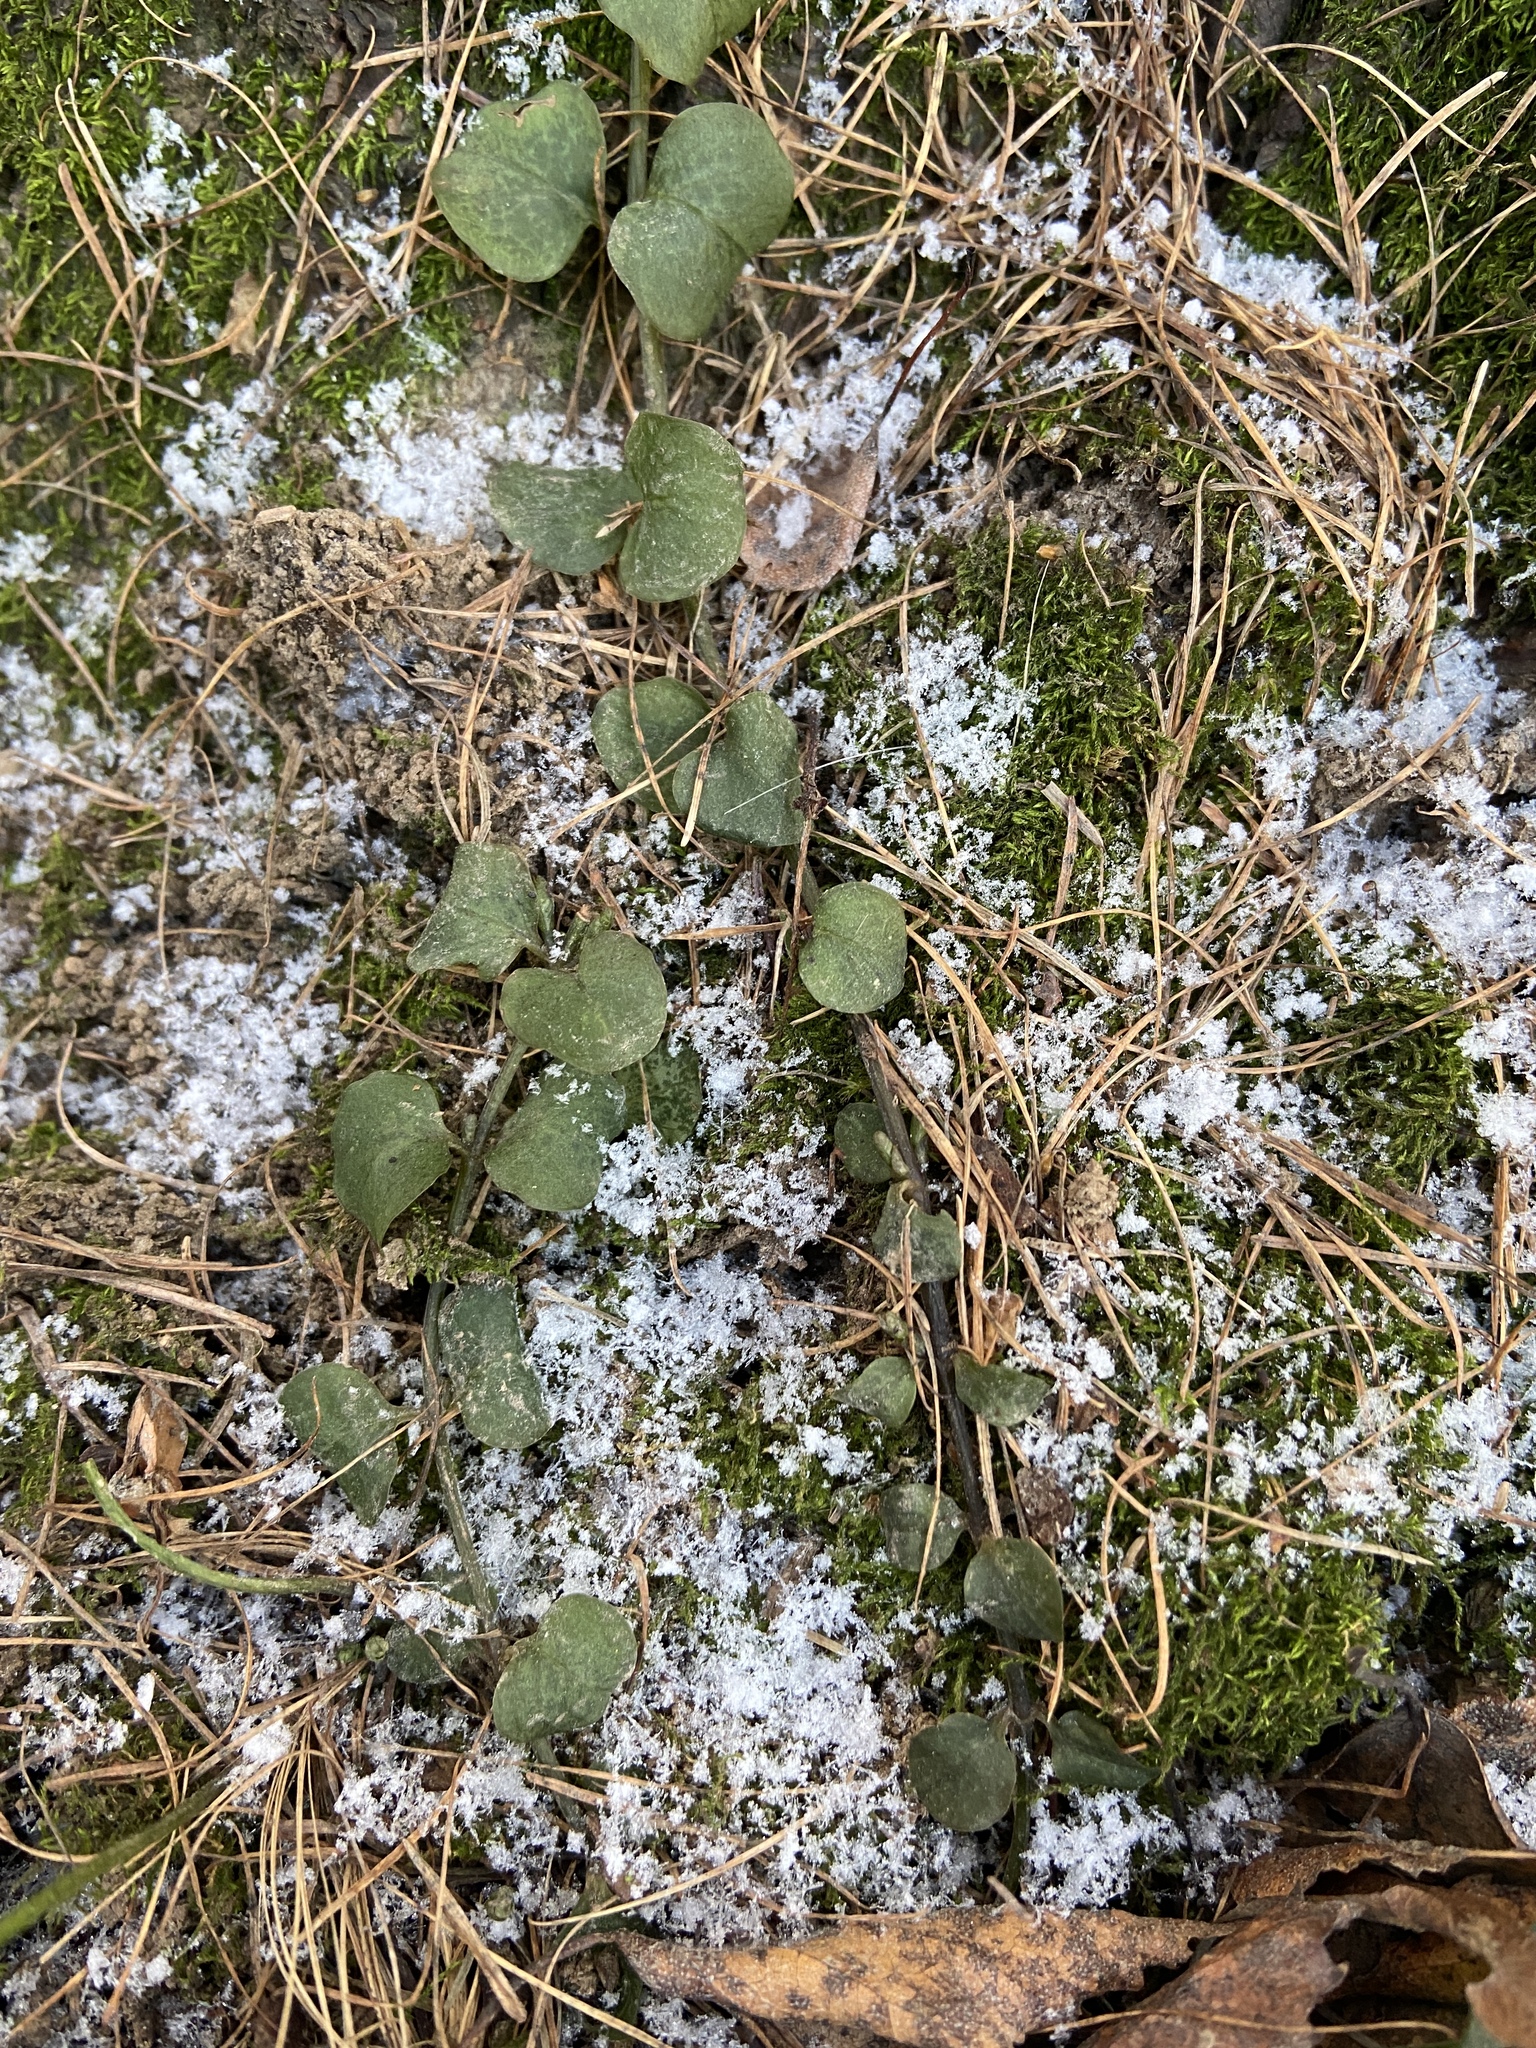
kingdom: Plantae
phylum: Tracheophyta
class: Magnoliopsida
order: Ericales
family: Primulaceae
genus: Lysimachia
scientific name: Lysimachia nummularia
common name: Moneywort
